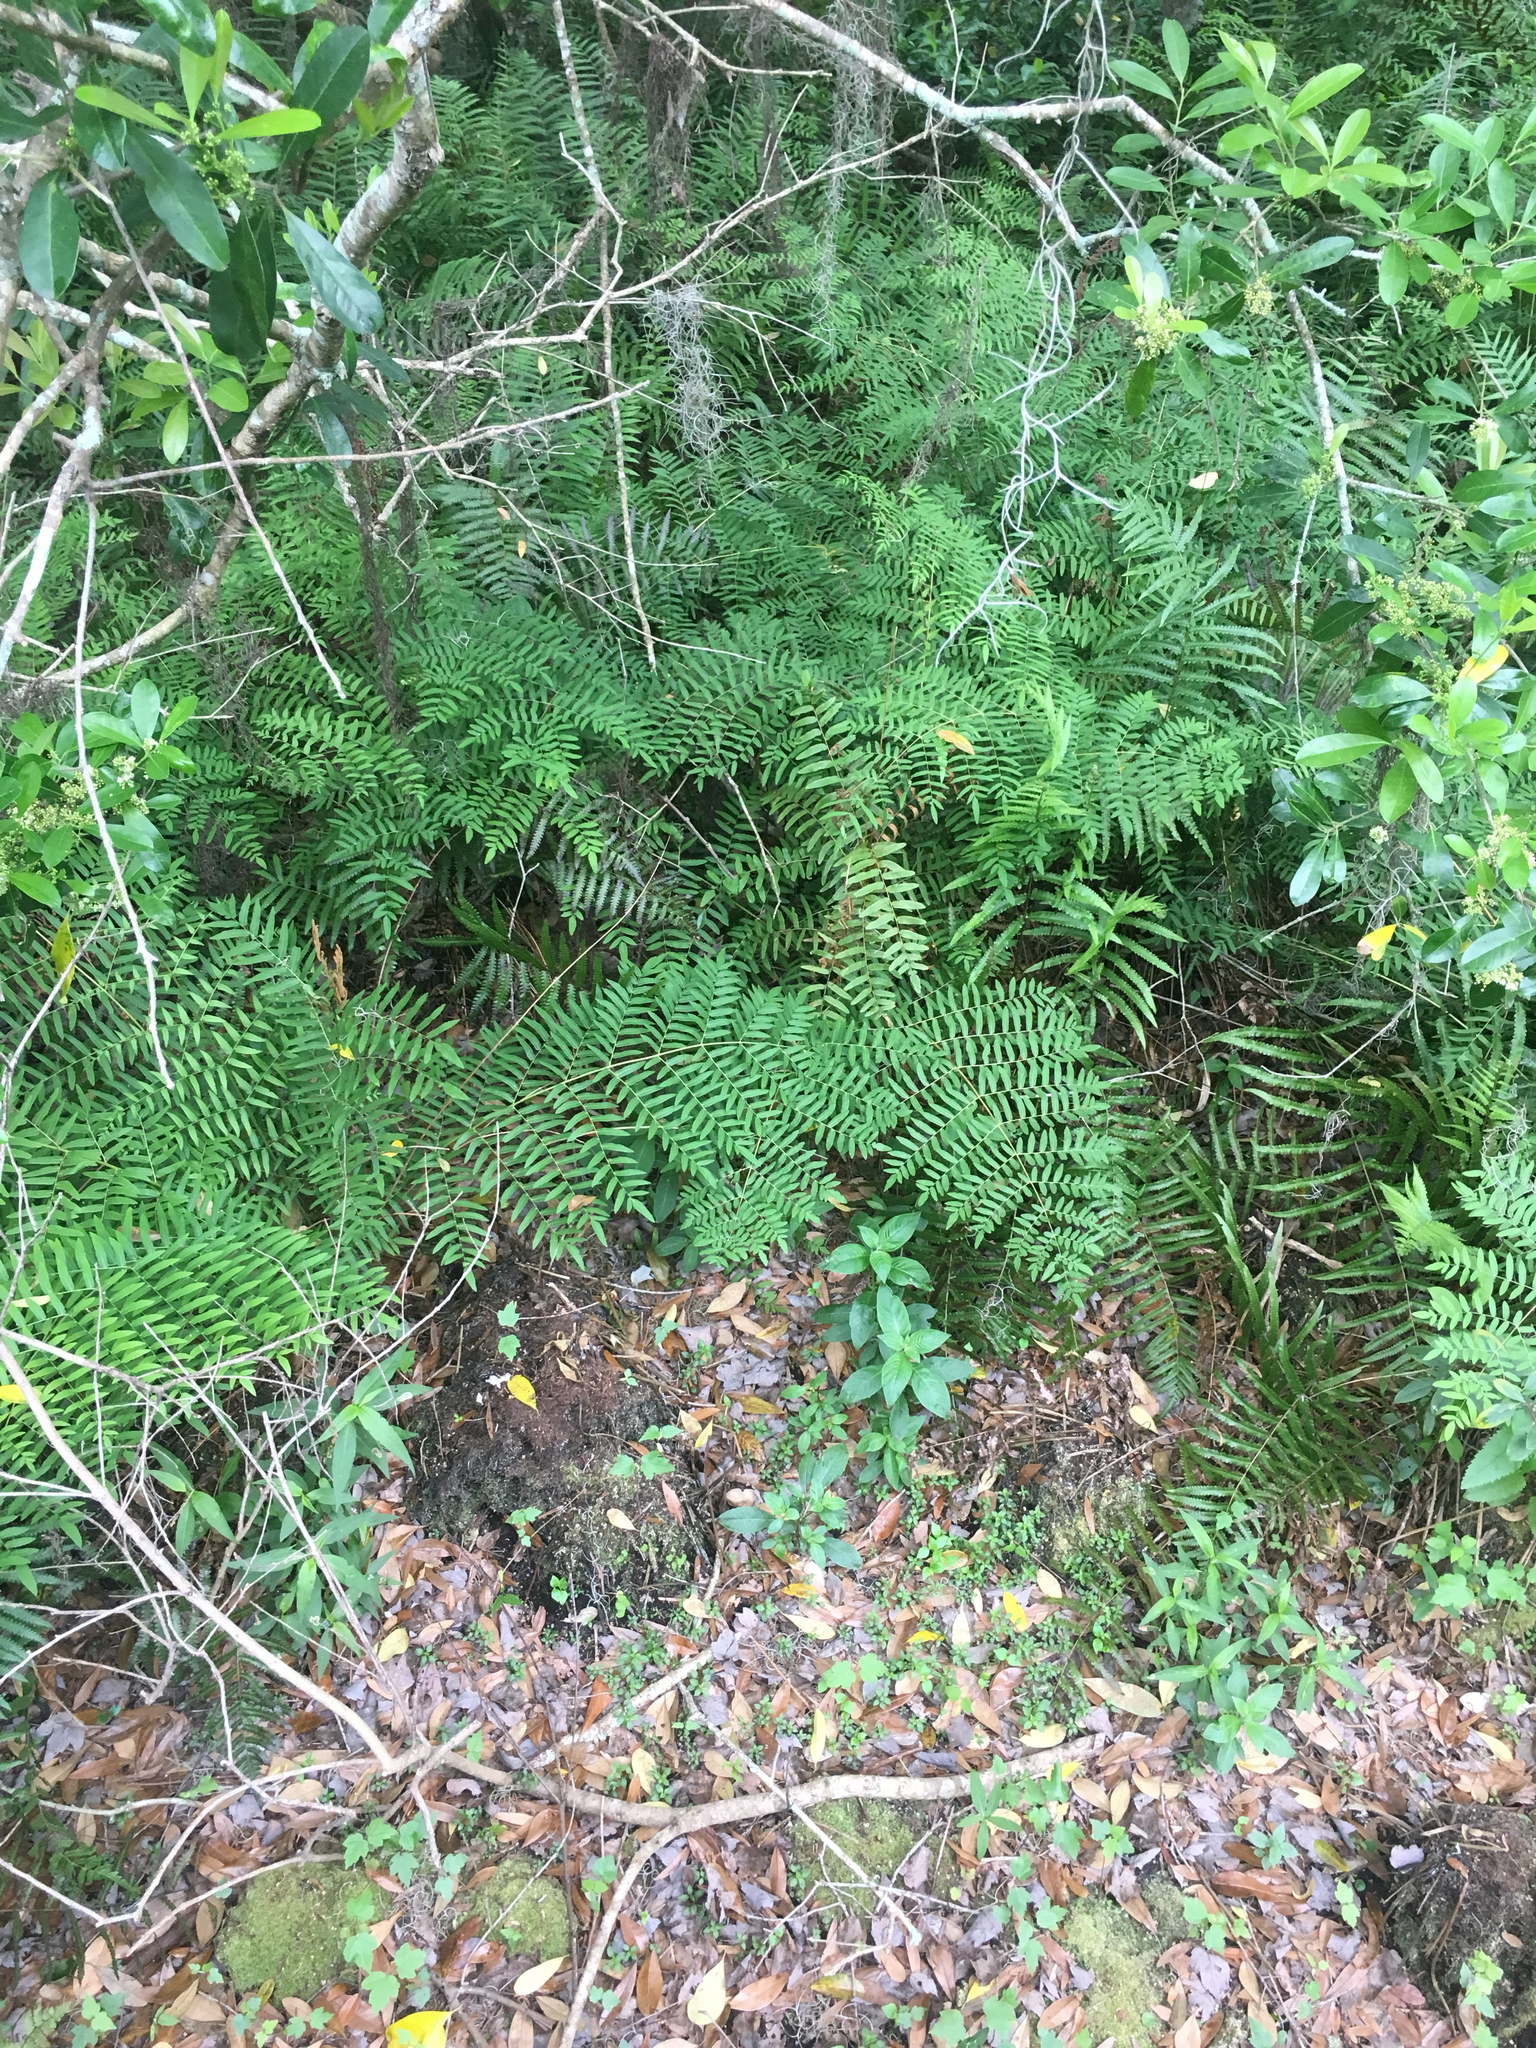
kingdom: Plantae
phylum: Tracheophyta
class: Polypodiopsida
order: Osmundales
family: Osmundaceae
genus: Osmunda
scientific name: Osmunda spectabilis
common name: American royal fern
